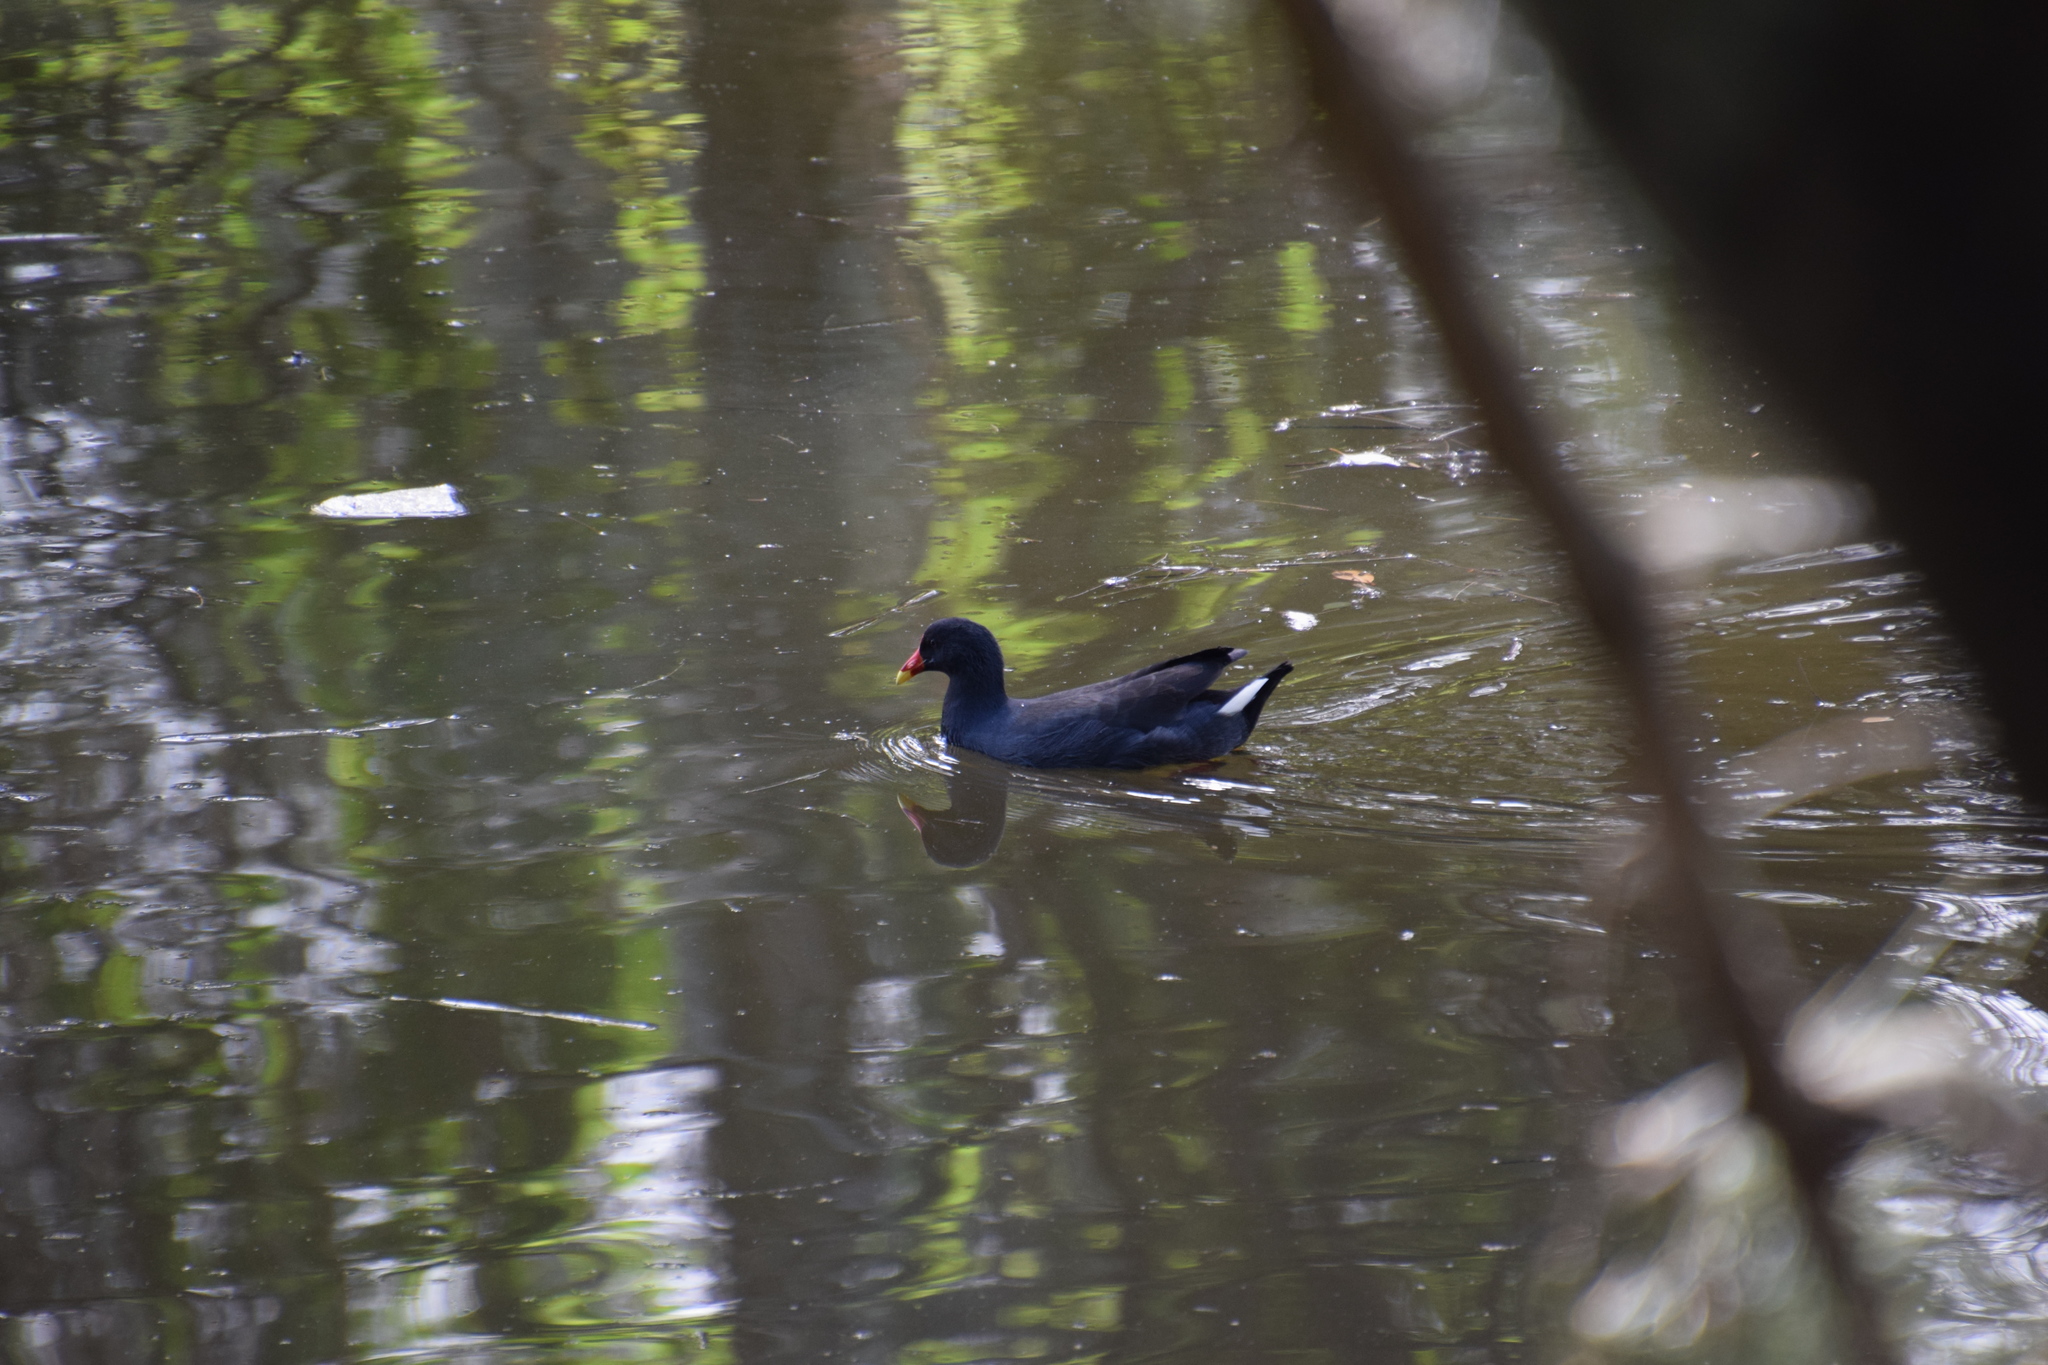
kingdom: Animalia
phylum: Chordata
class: Aves
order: Gruiformes
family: Rallidae
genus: Gallinula
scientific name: Gallinula tenebrosa
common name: Dusky moorhen
